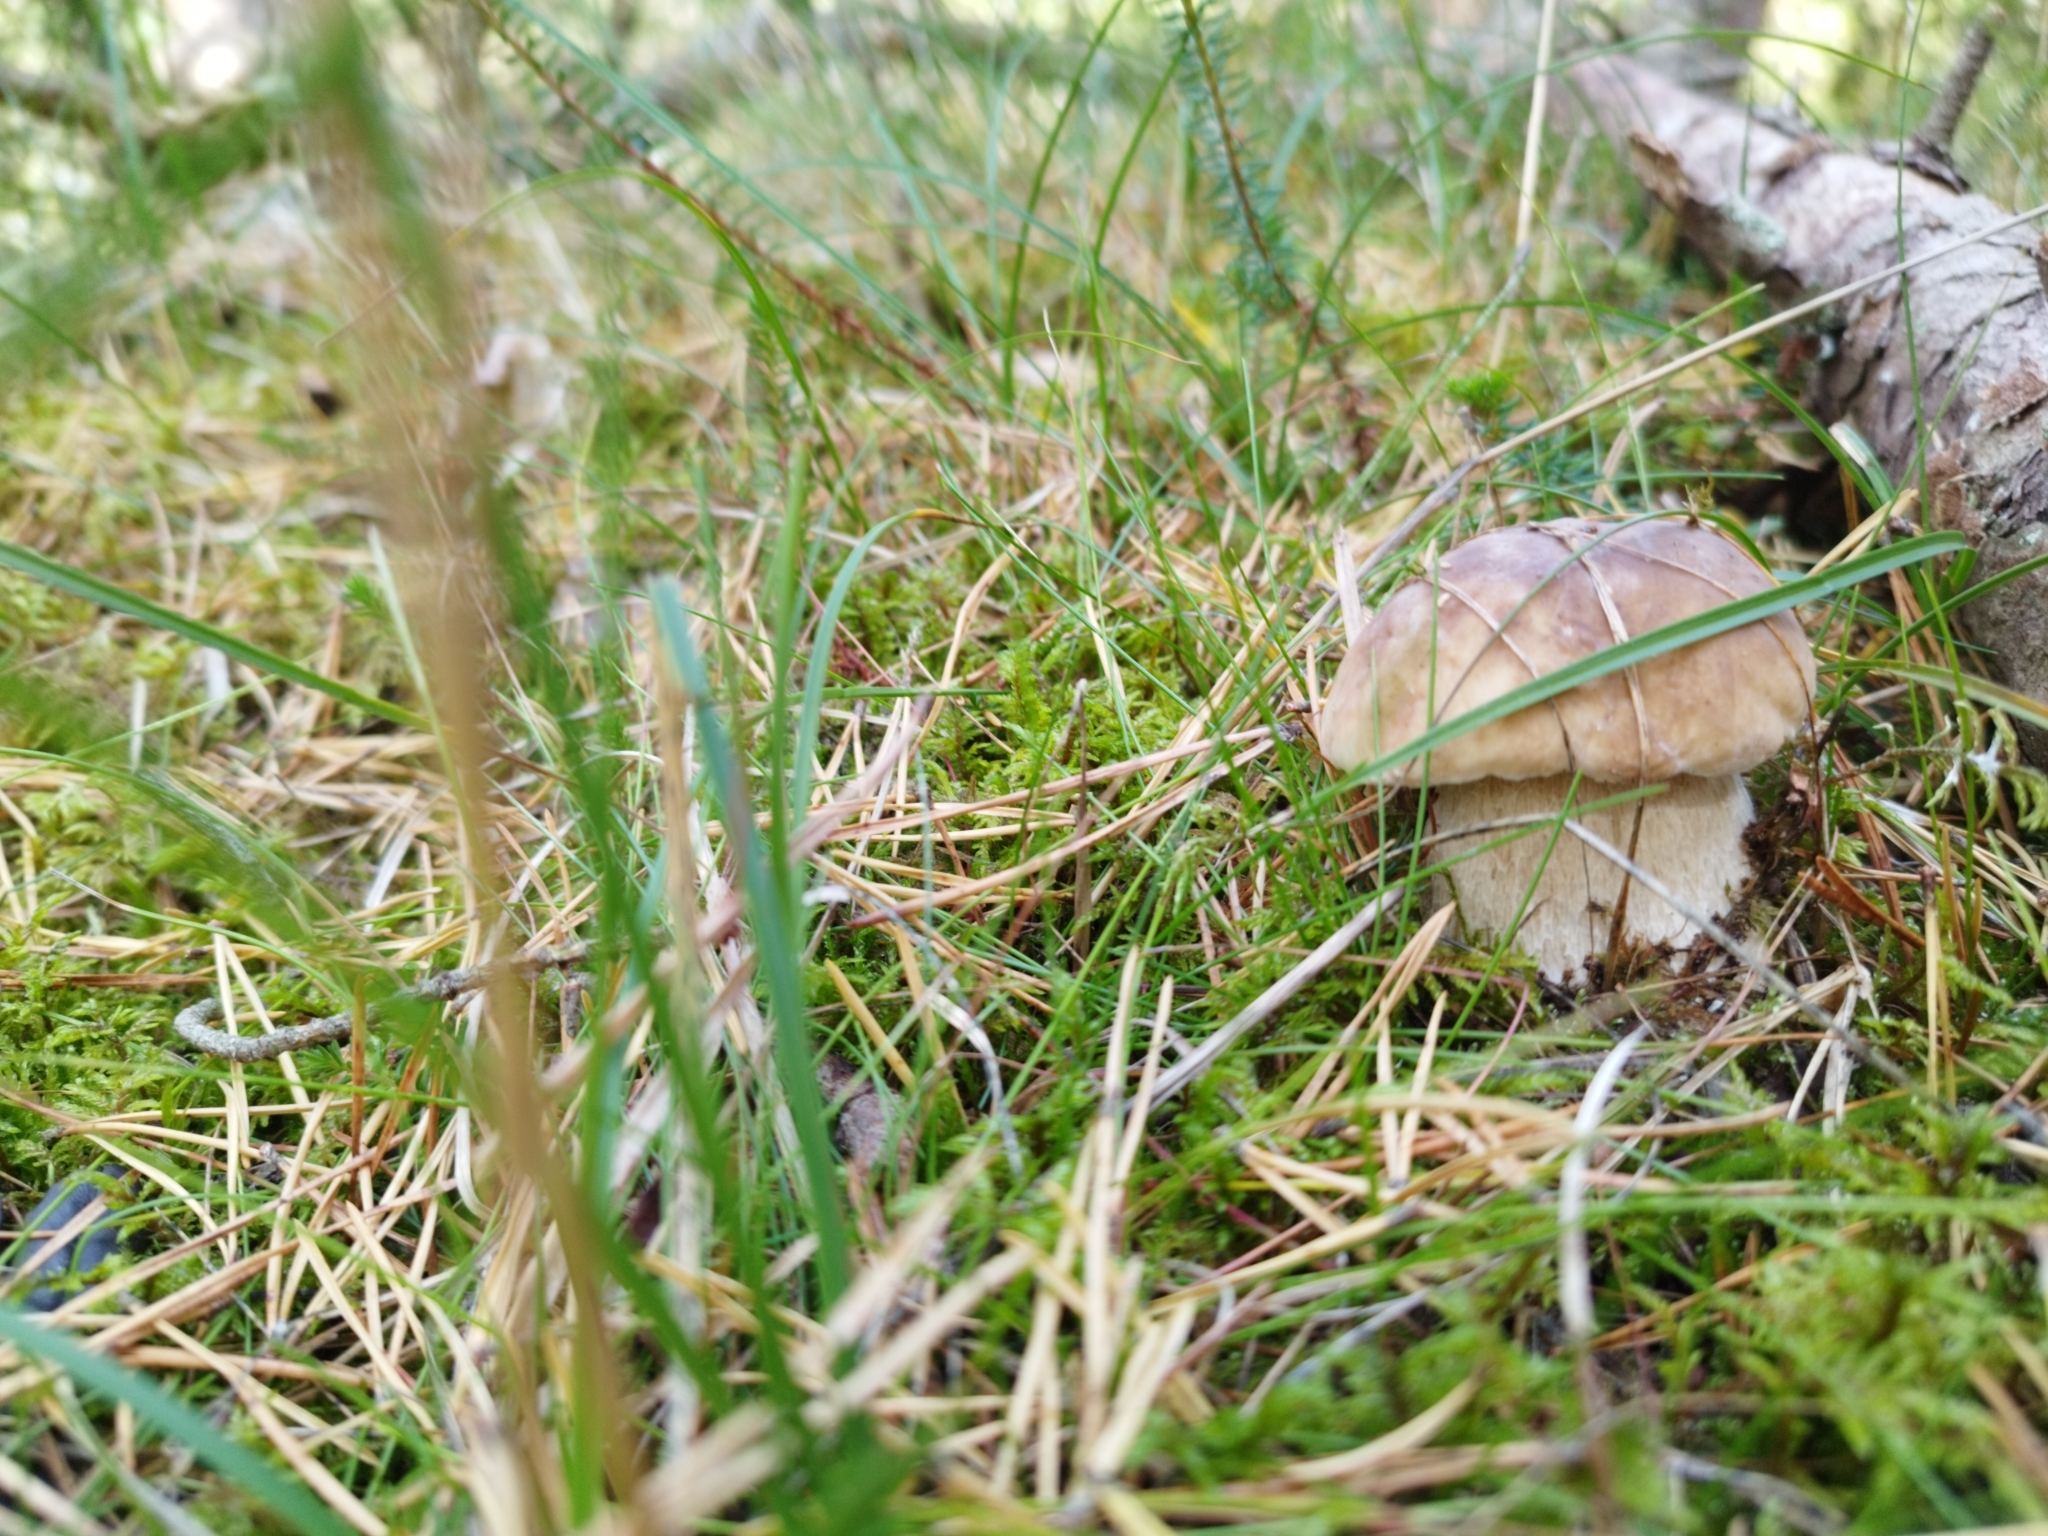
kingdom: Fungi
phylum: Basidiomycota
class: Agaricomycetes
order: Boletales
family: Boletaceae
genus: Boletus
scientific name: Boletus edulis
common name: Cep
